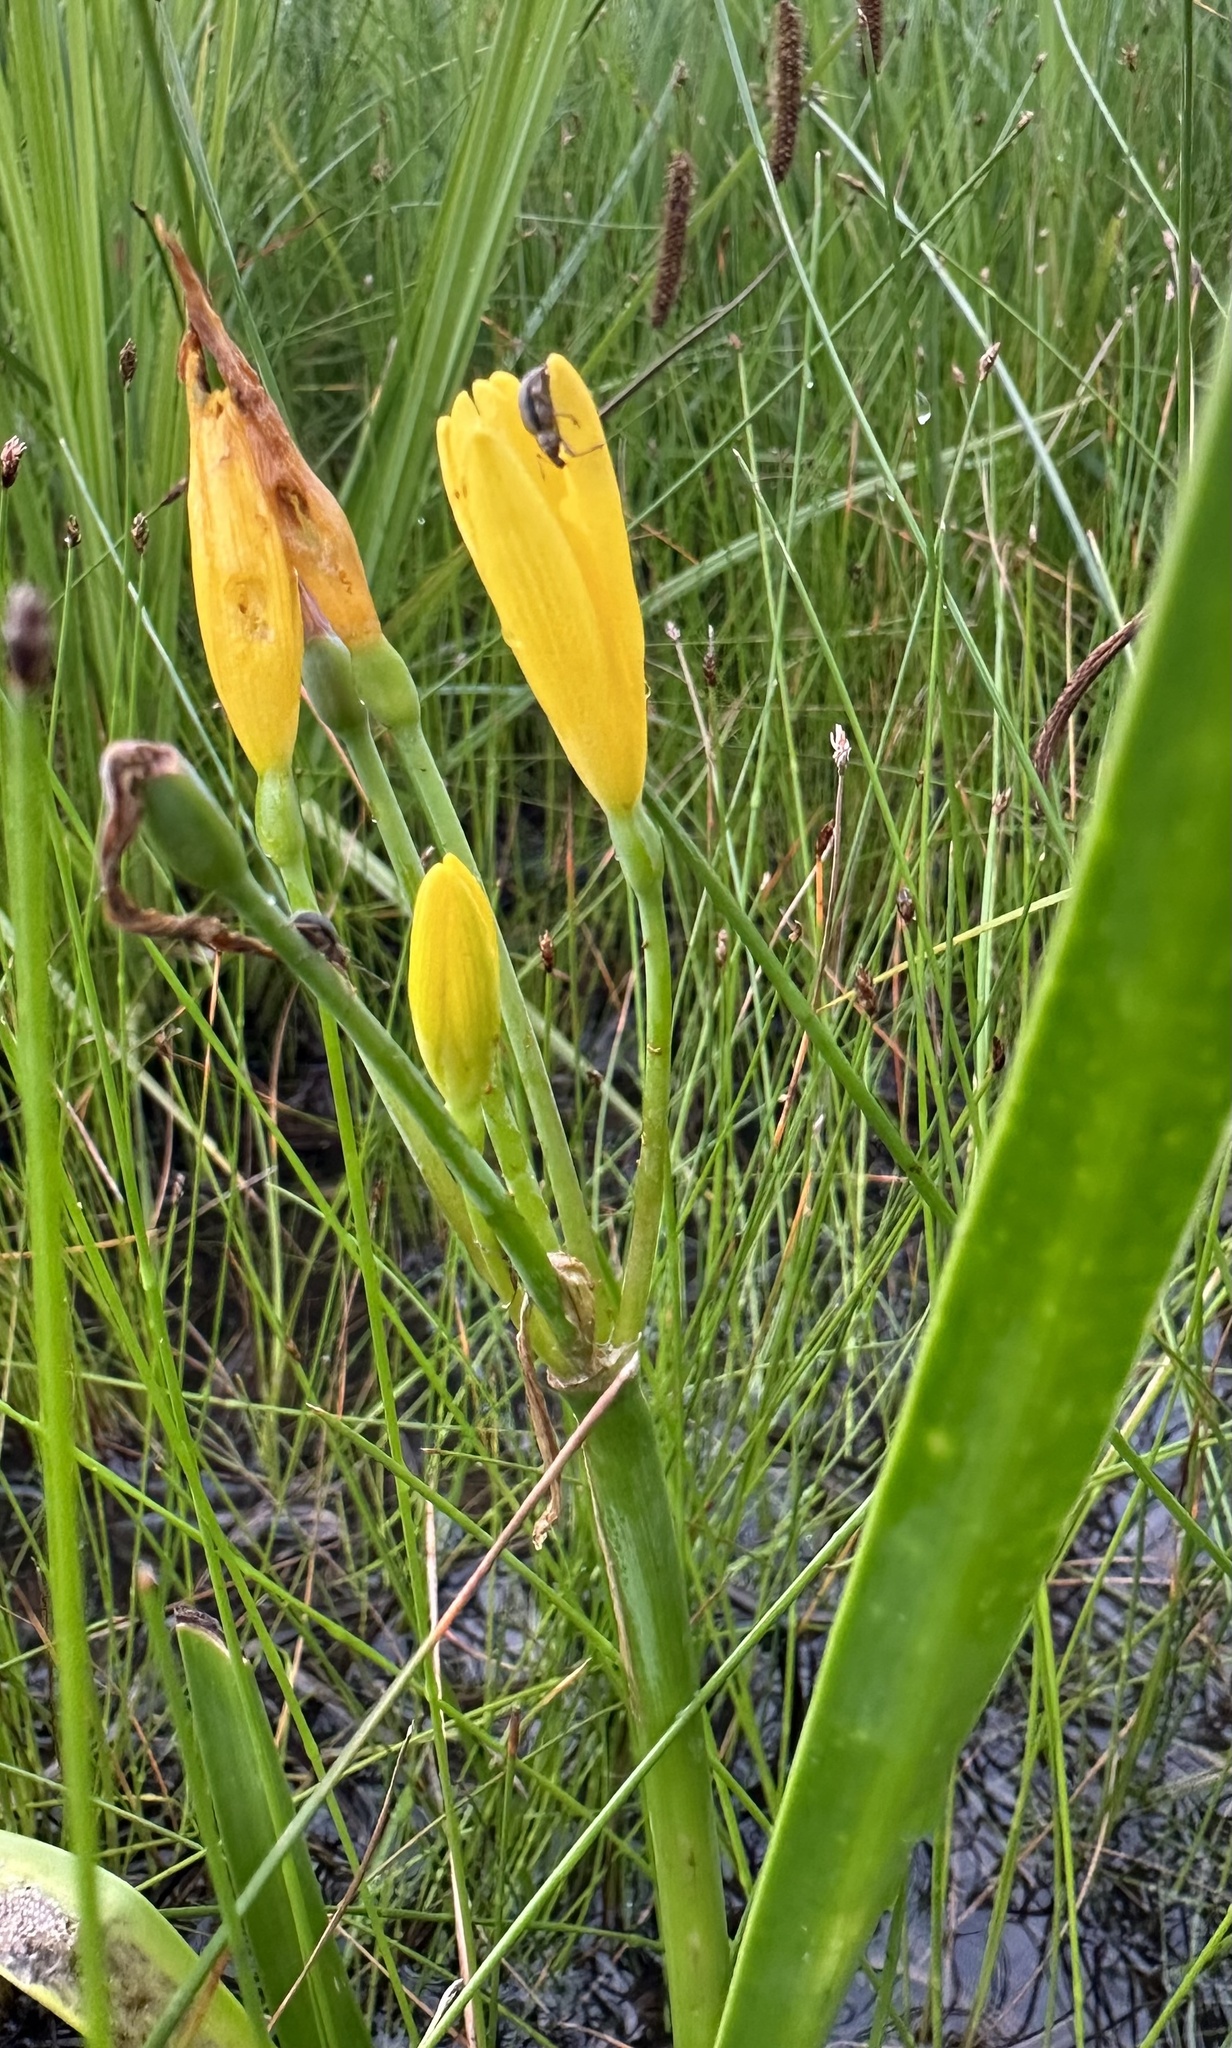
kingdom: Plantae
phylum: Tracheophyta
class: Liliopsida
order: Asparagales
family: Amaryllidaceae
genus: Cyrtanthus
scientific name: Cyrtanthus breviflorus
